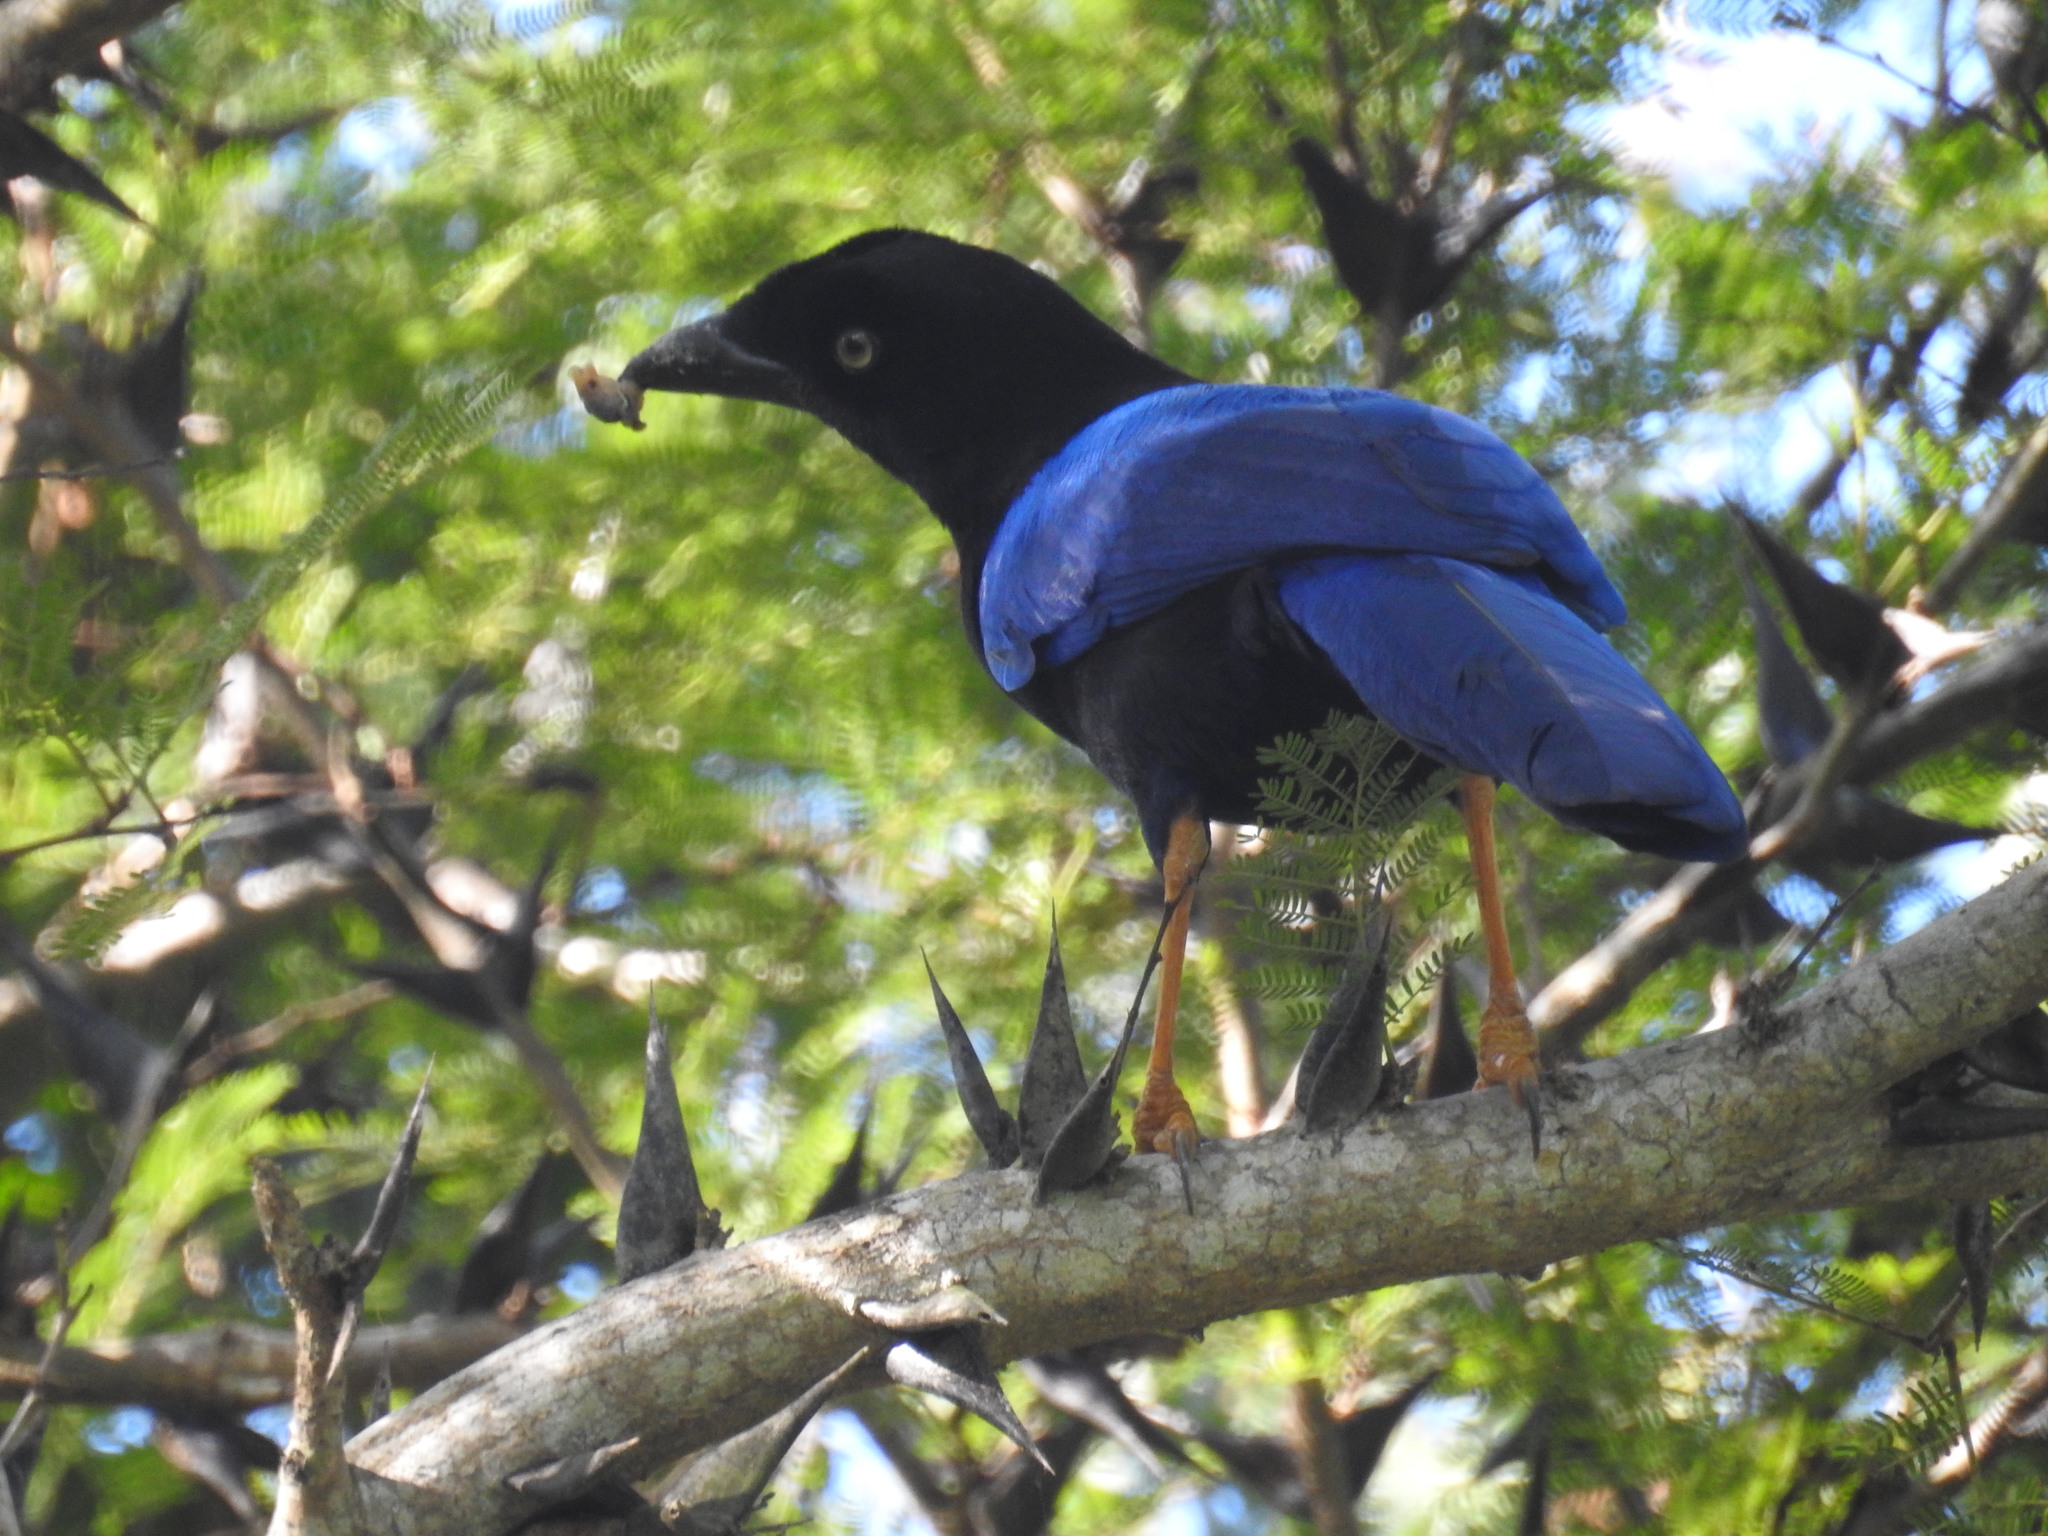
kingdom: Animalia
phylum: Chordata
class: Aves
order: Passeriformes
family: Corvidae
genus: Cyanocorax
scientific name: Cyanocorax beecheii
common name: Purplish-backed jay
